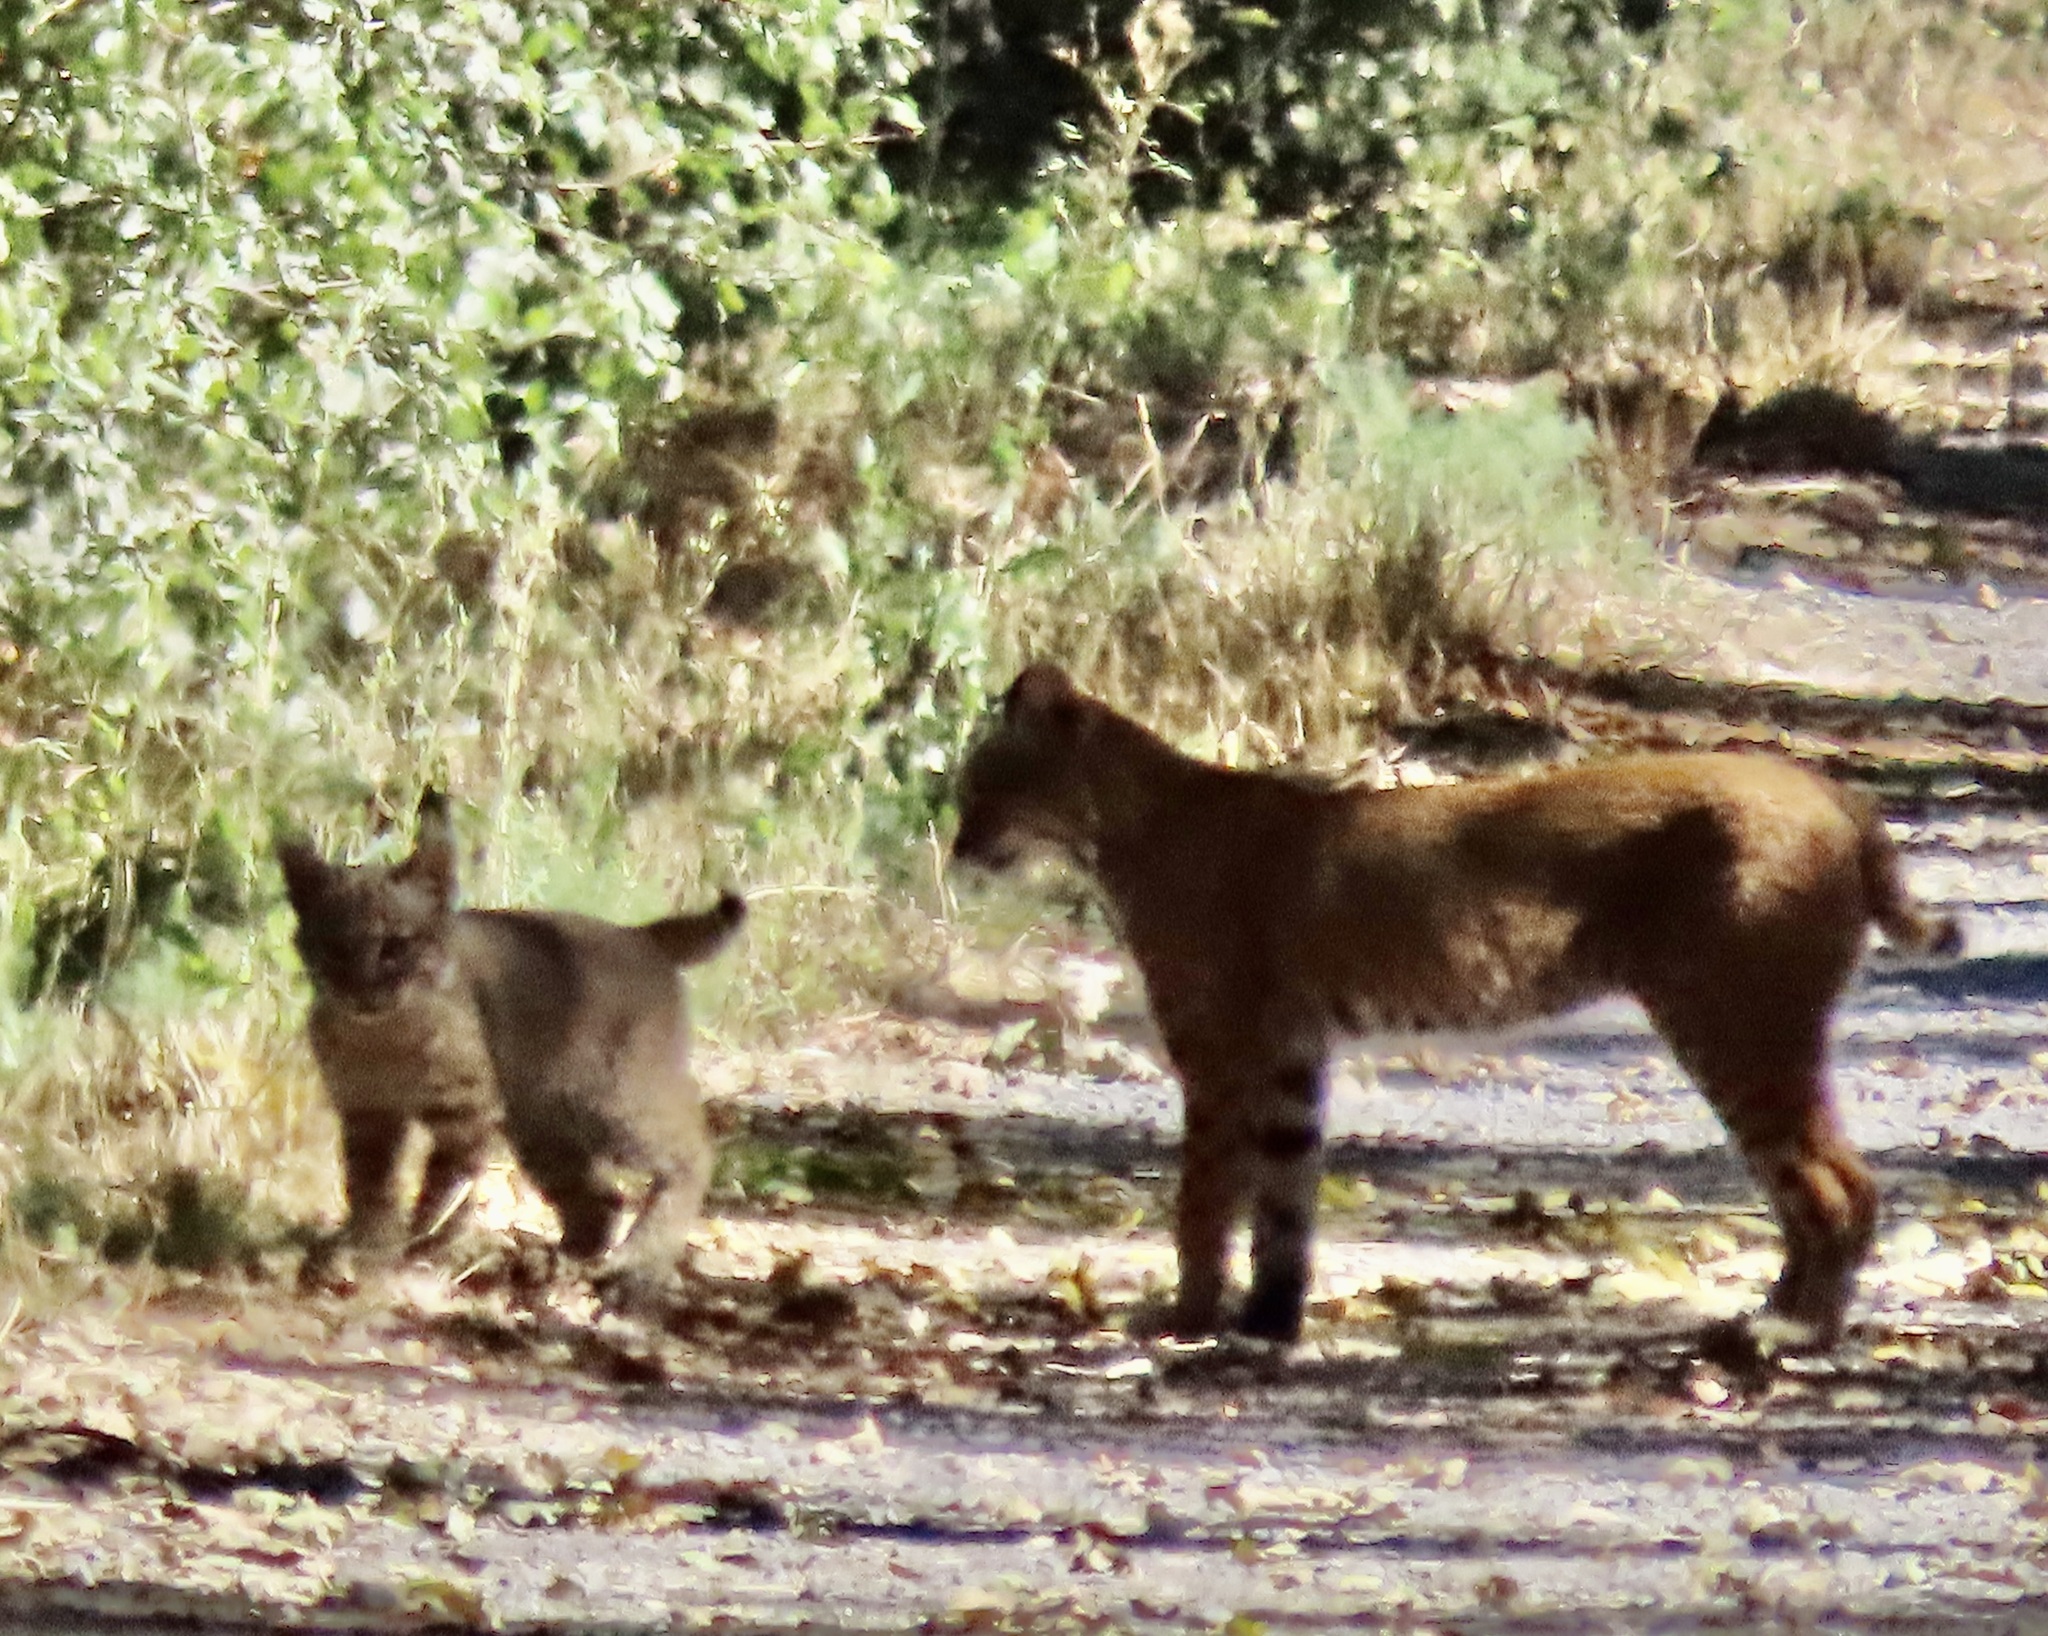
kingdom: Animalia
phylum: Chordata
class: Mammalia
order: Carnivora
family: Felidae
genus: Lynx
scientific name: Lynx rufus
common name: Bobcat
